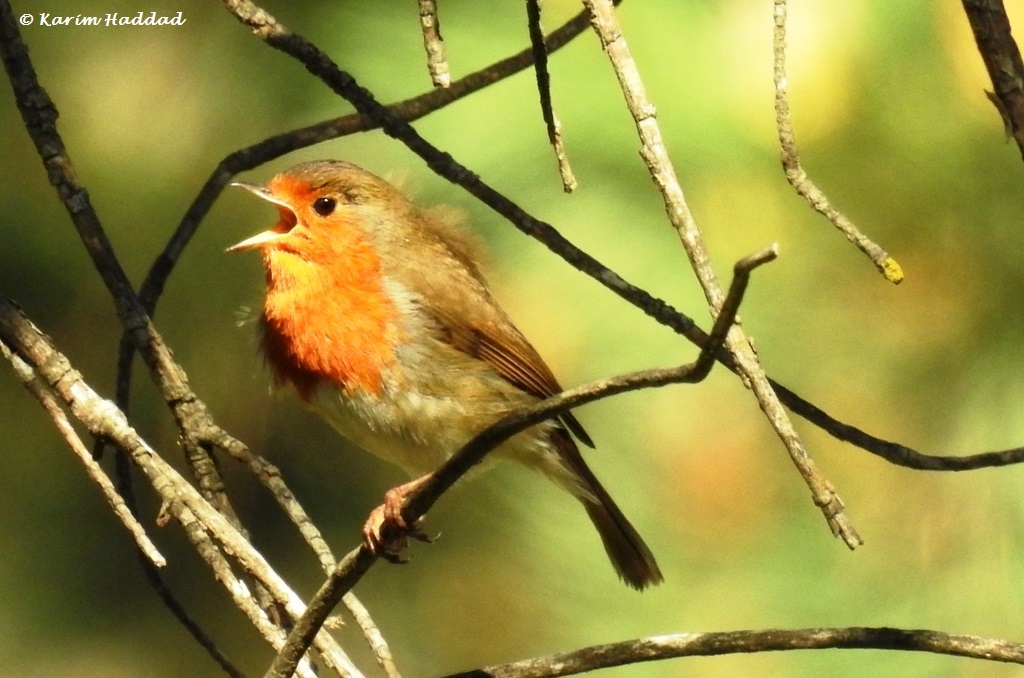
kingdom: Animalia
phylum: Chordata
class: Aves
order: Passeriformes
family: Muscicapidae
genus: Erithacus
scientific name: Erithacus rubecula
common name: European robin
